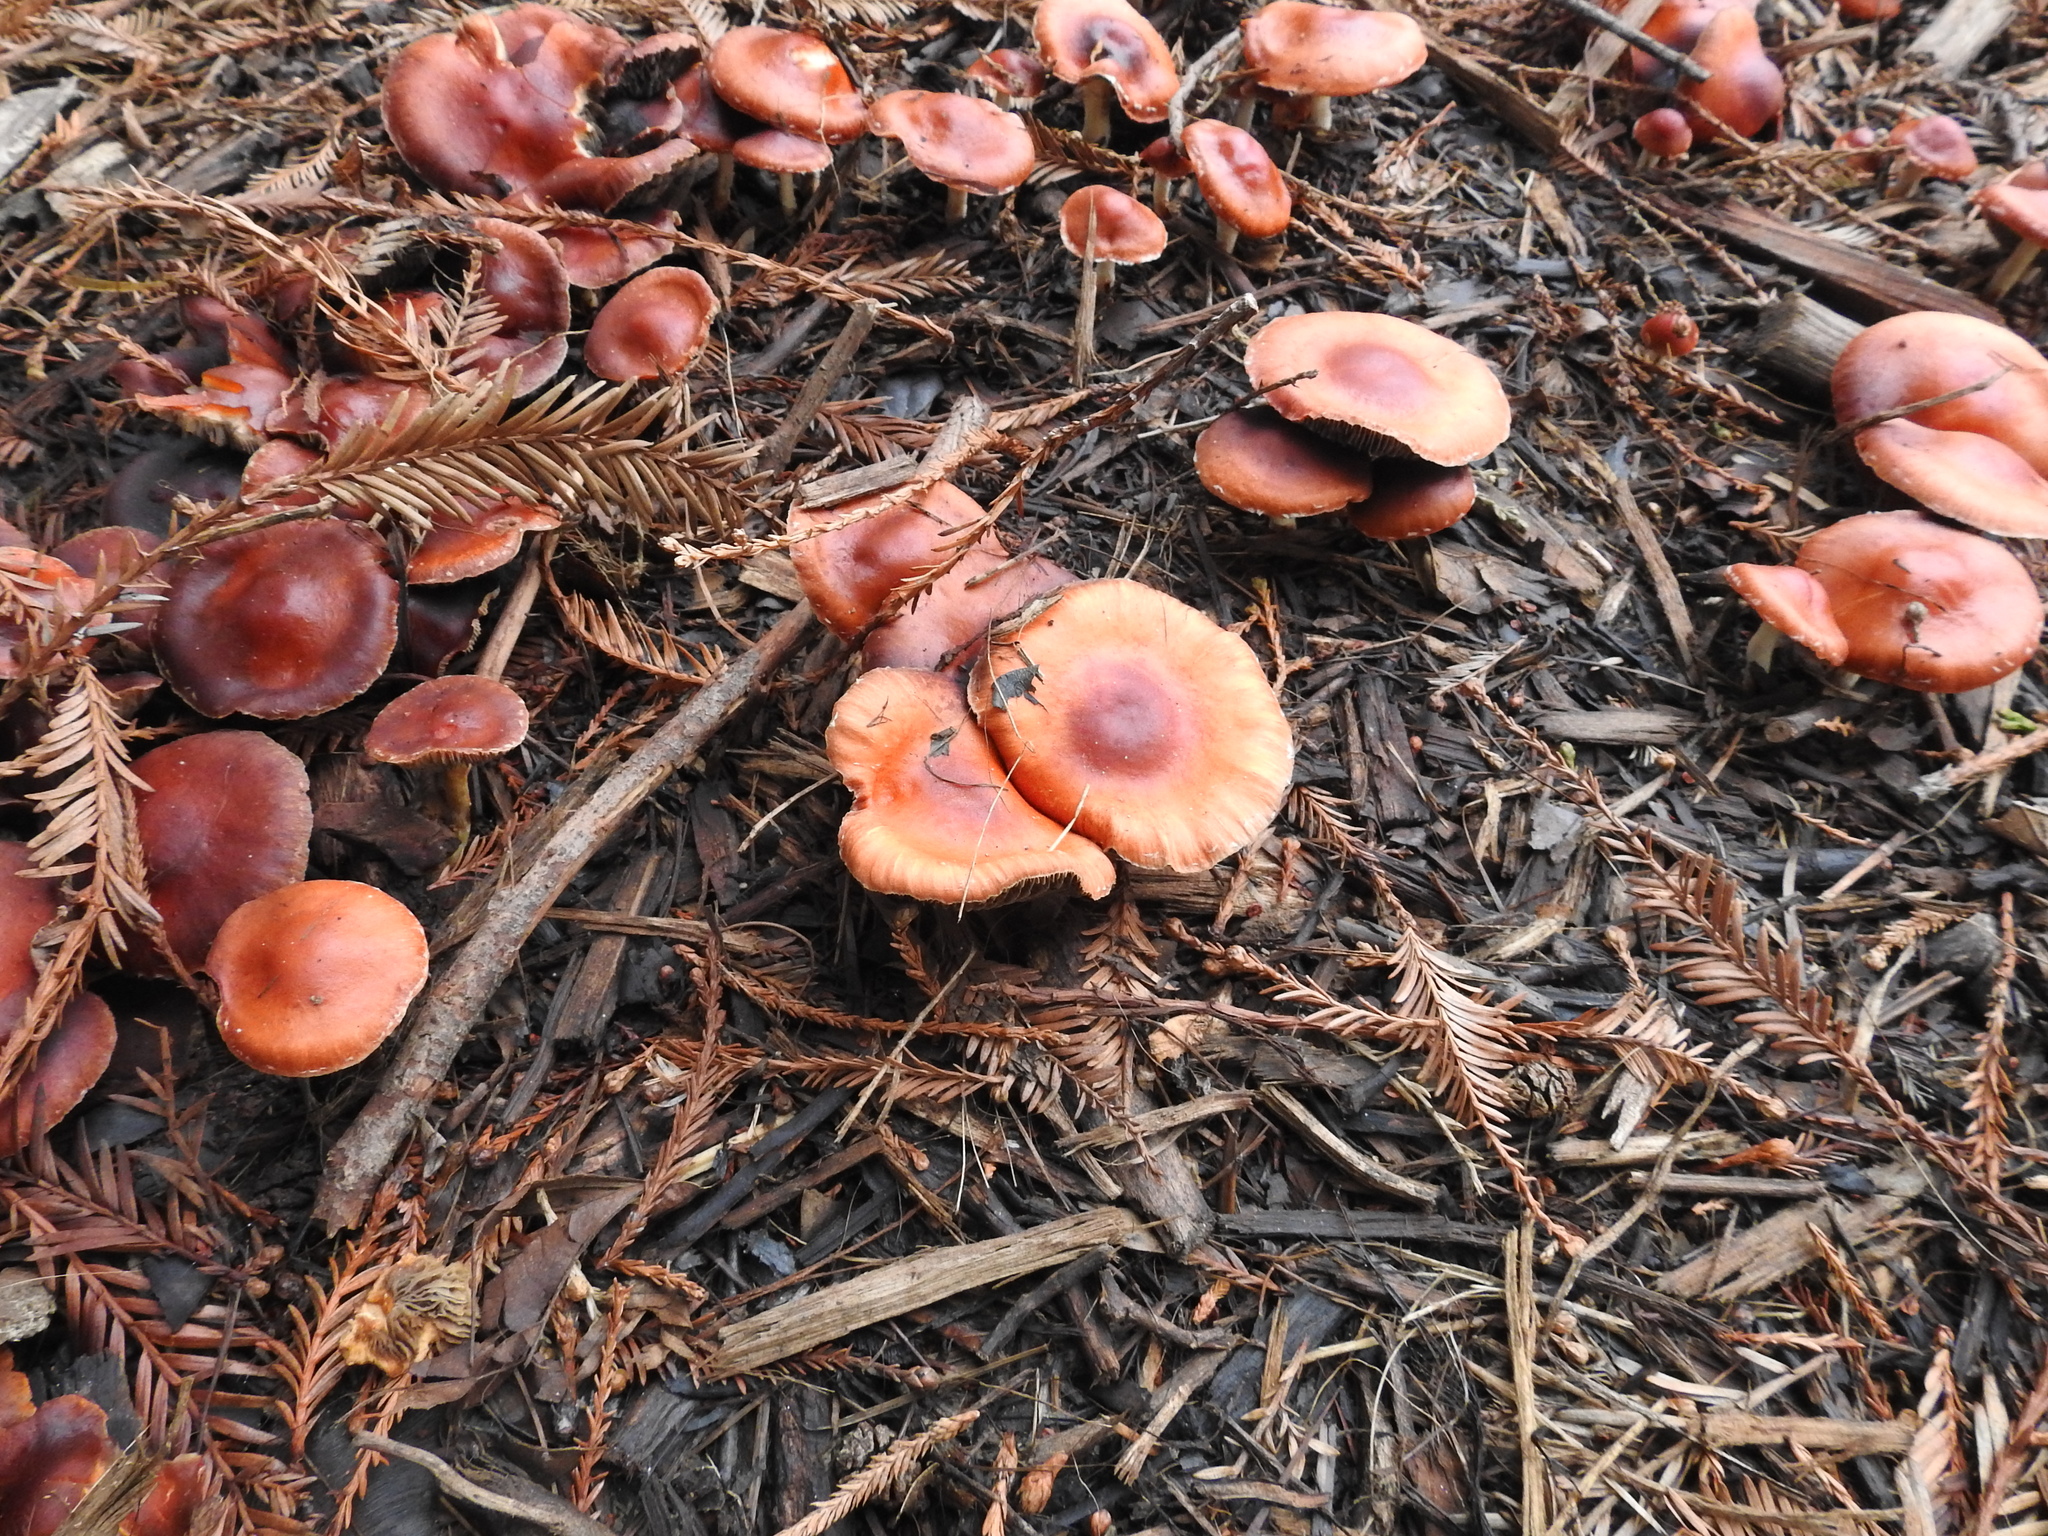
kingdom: Fungi
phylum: Basidiomycota
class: Agaricomycetes
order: Agaricales
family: Strophariaceae
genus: Leratiomyces
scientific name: Leratiomyces ceres
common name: Redlead roundhead
